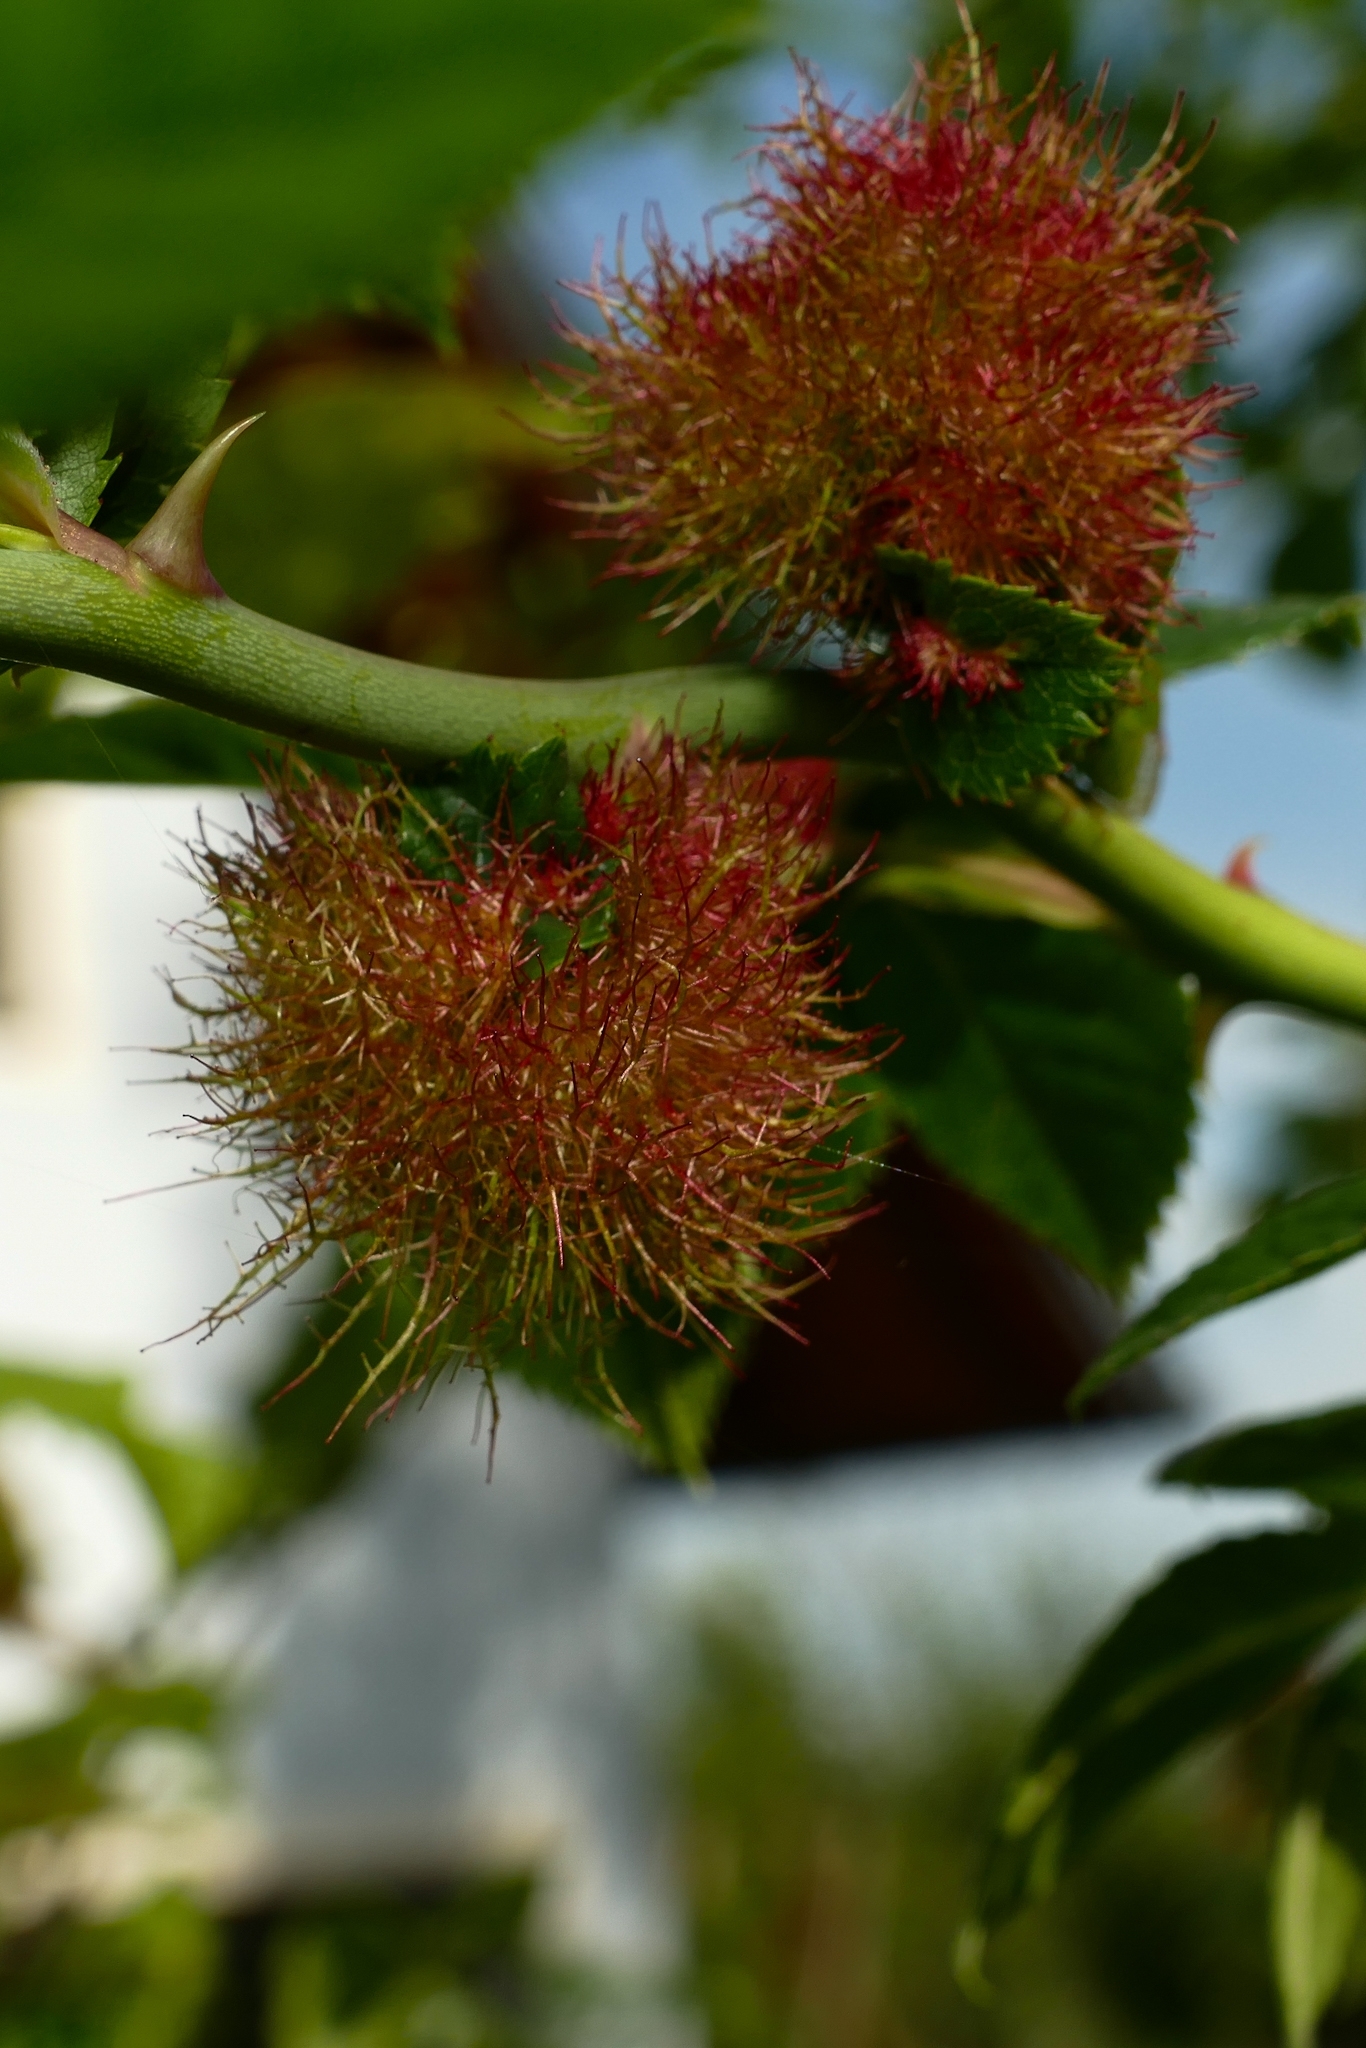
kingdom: Animalia
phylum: Arthropoda
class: Insecta
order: Hymenoptera
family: Cynipidae
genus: Diplolepis
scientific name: Diplolepis rosae
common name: Bedeguar gall
